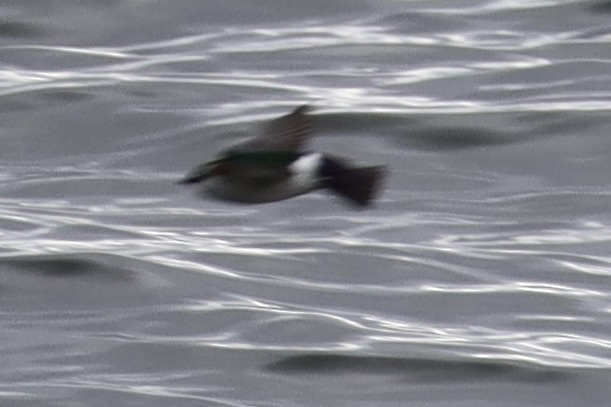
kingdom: Animalia
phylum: Chordata
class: Aves
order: Passeriformes
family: Hirundinidae
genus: Tachycineta
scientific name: Tachycineta thalassina
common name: Violet-green swallow
